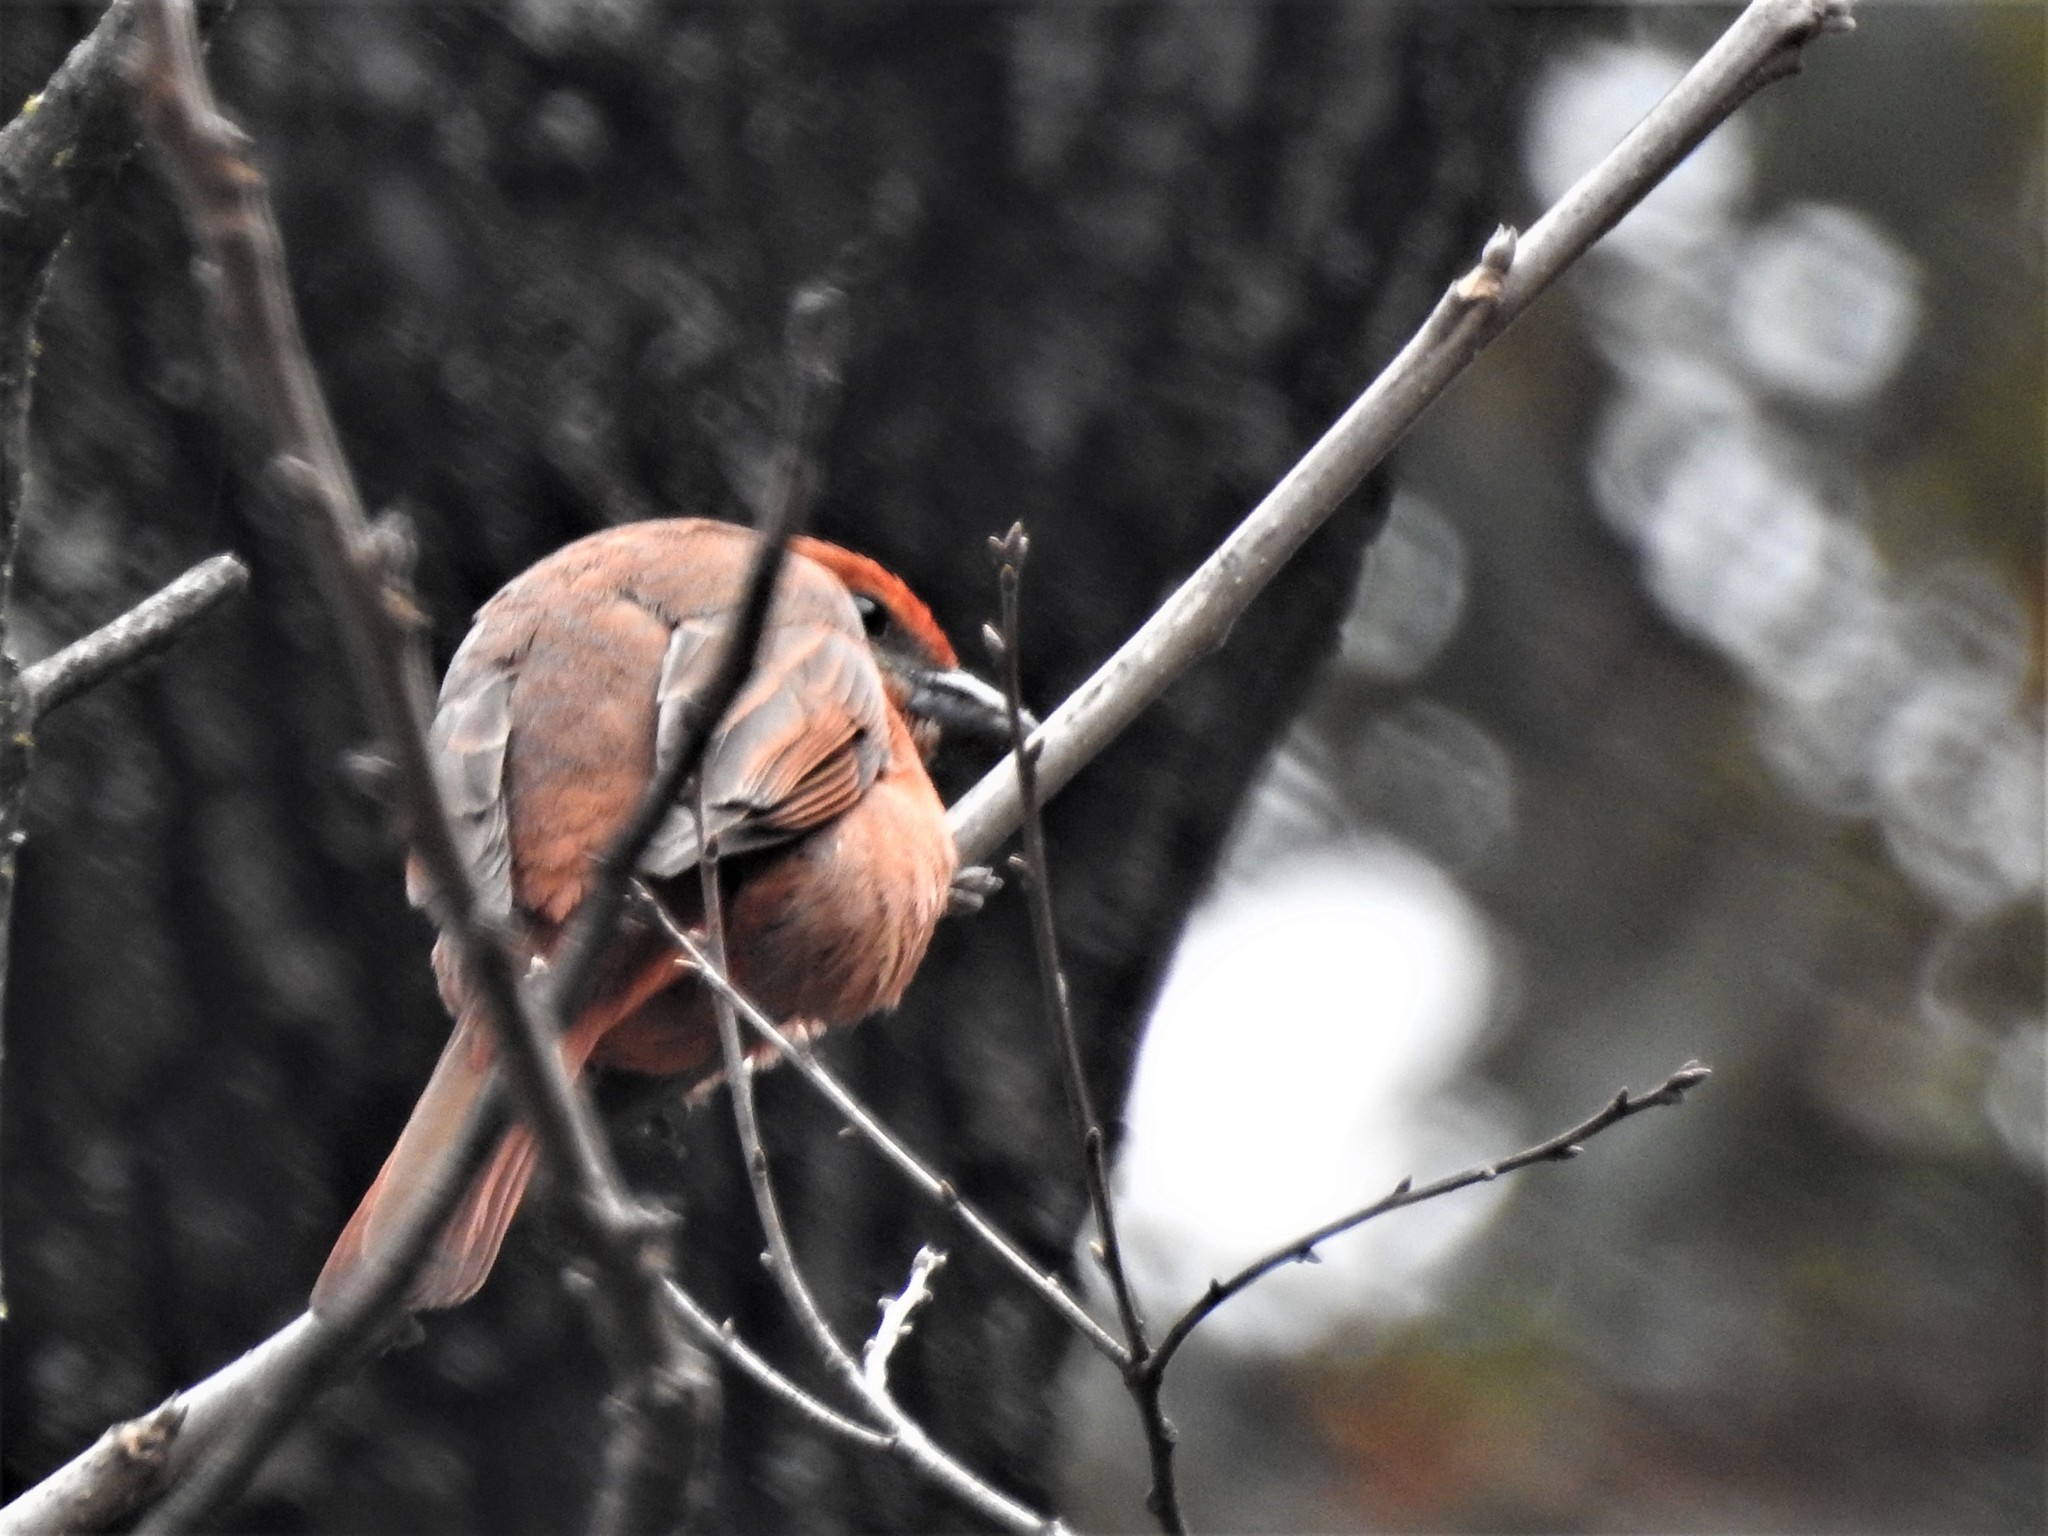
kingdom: Animalia
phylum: Chordata
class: Aves
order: Passeriformes
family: Cardinalidae
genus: Piranga
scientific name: Piranga flava
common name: Red tanager
